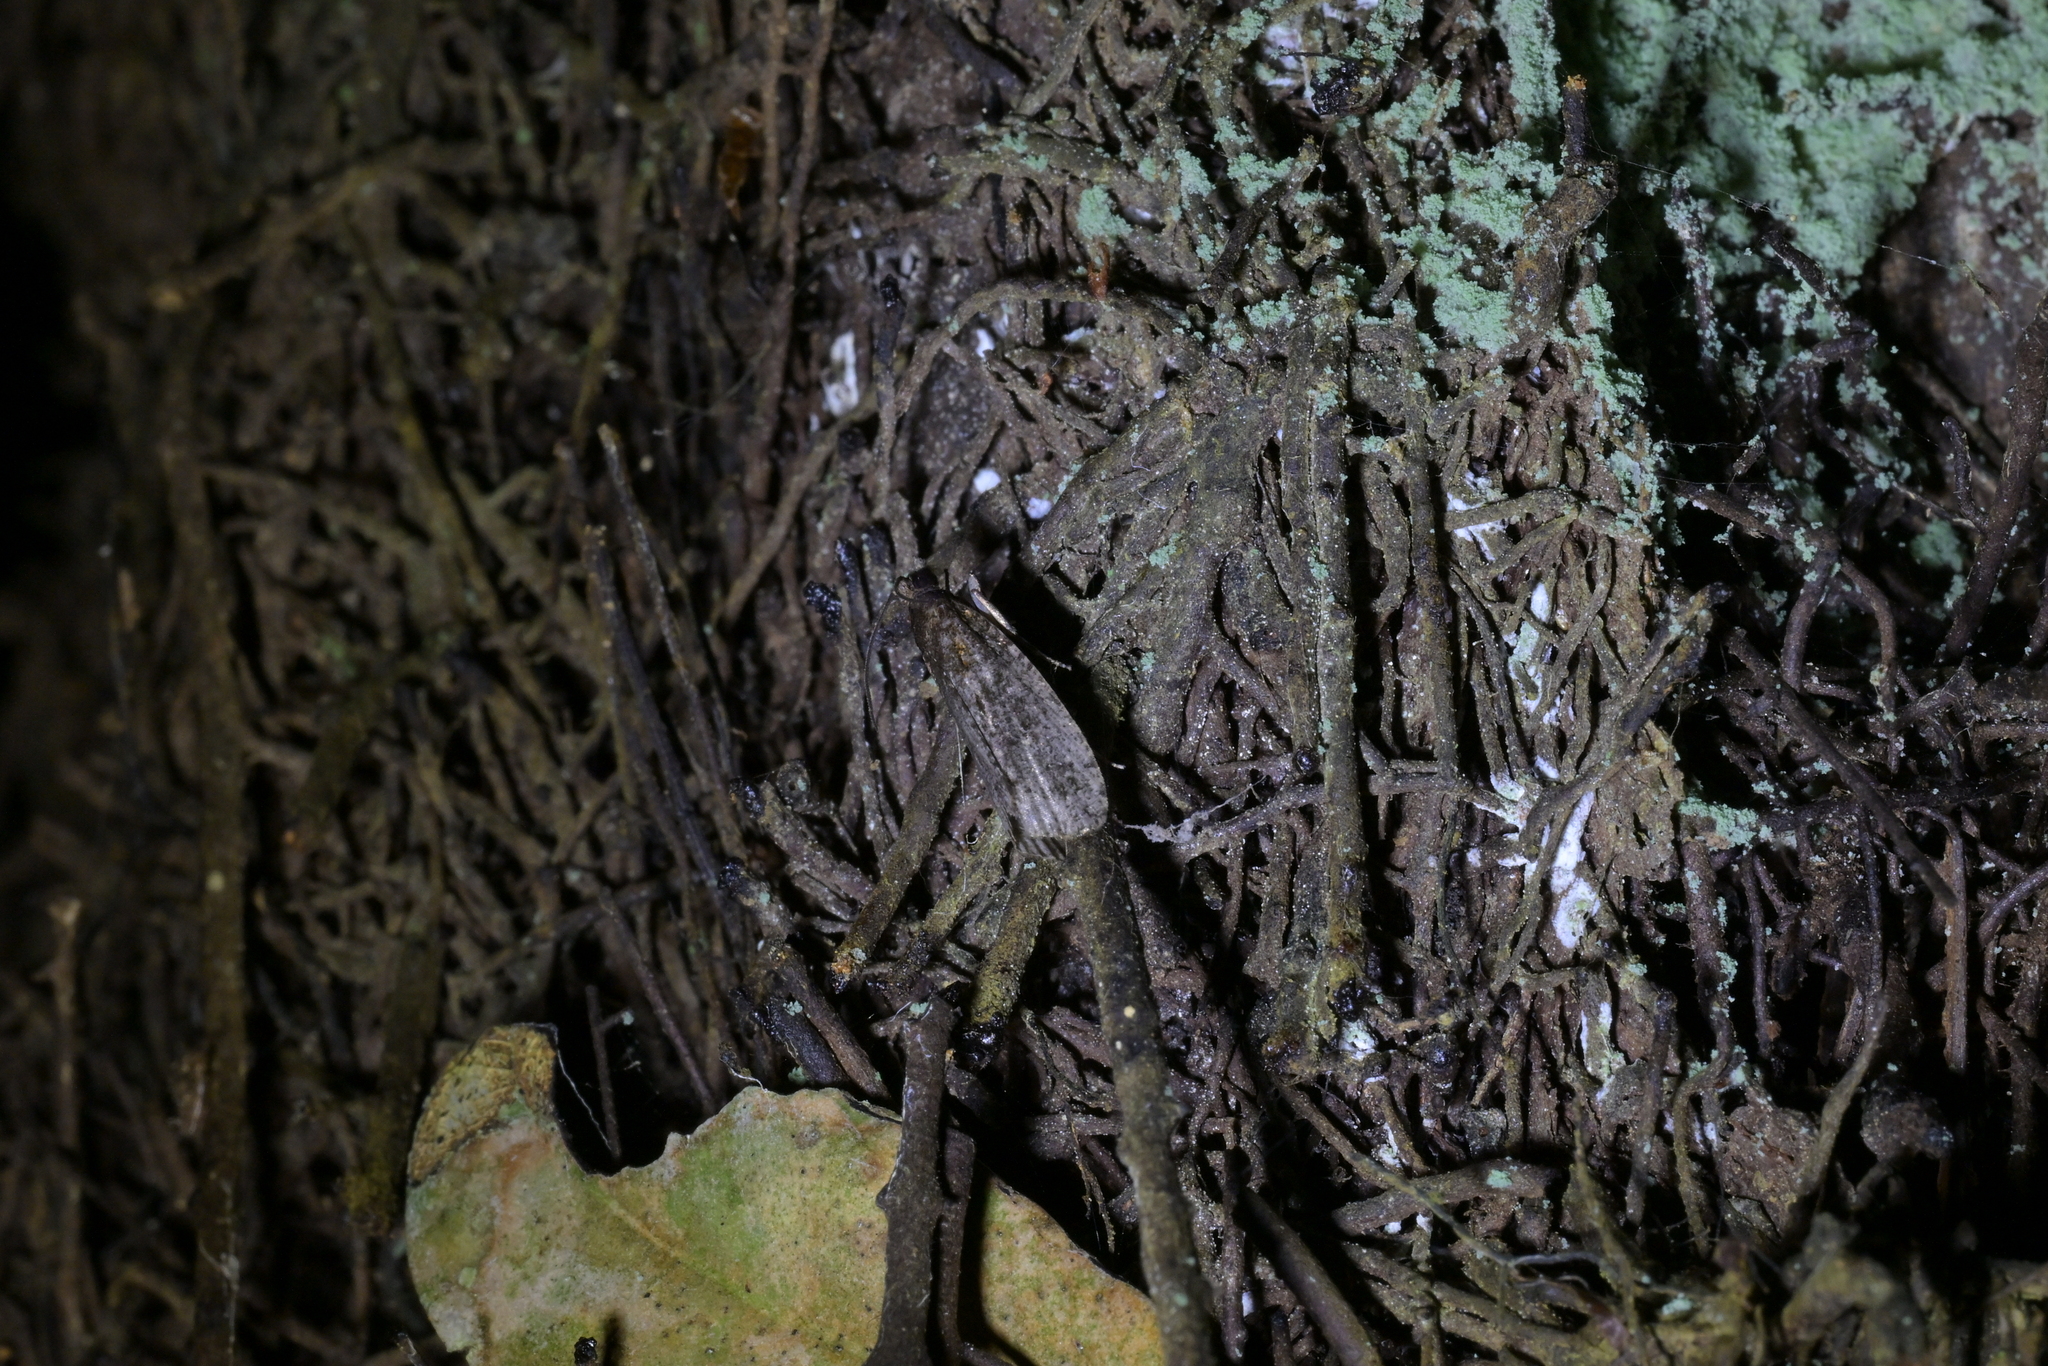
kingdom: Animalia
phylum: Arthropoda
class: Insecta
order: Lepidoptera
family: Tortricidae
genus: Cryptaspasma
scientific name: Cryptaspasma querula
